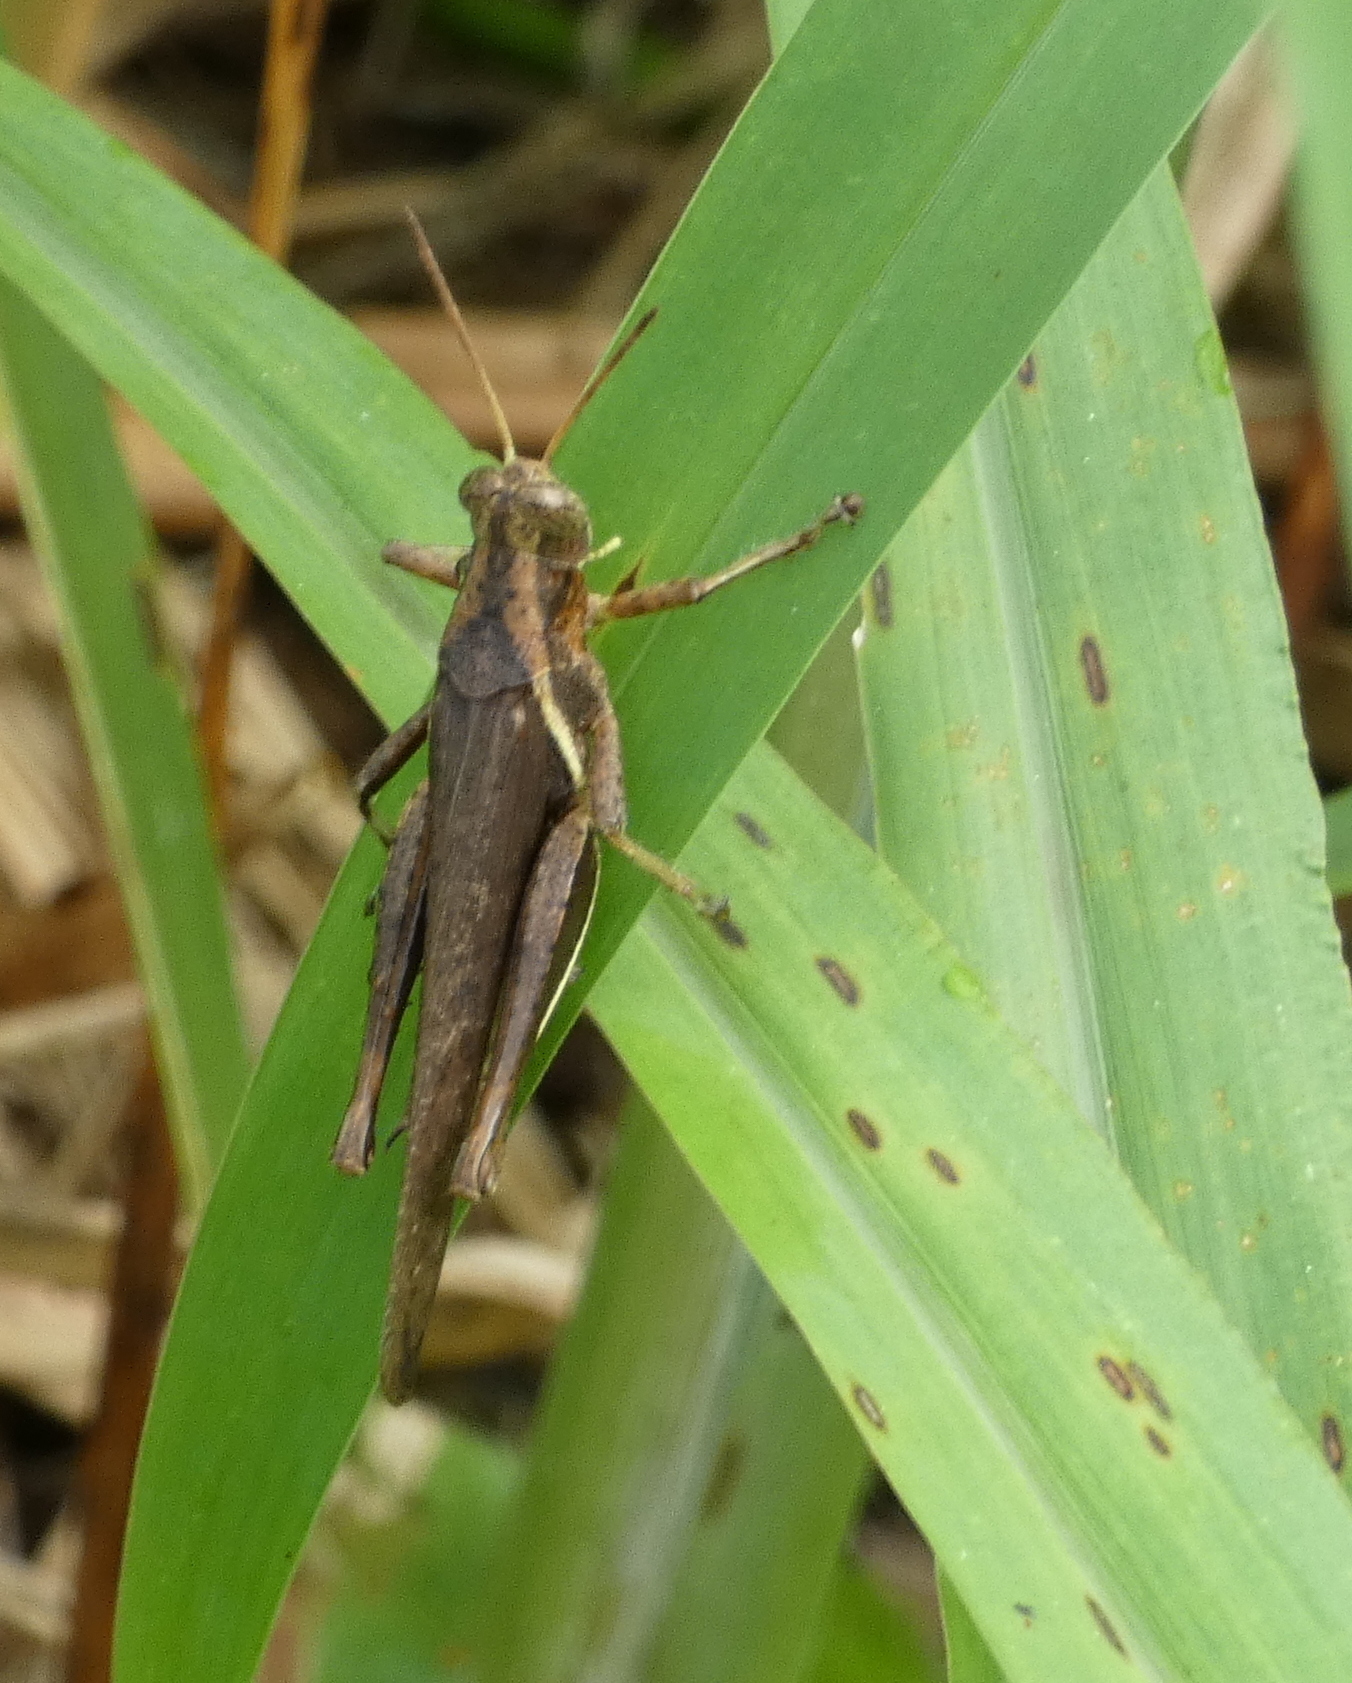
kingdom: Animalia
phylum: Arthropoda
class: Insecta
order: Orthoptera
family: Acrididae
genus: Abracris
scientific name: Abracris flavolineata
